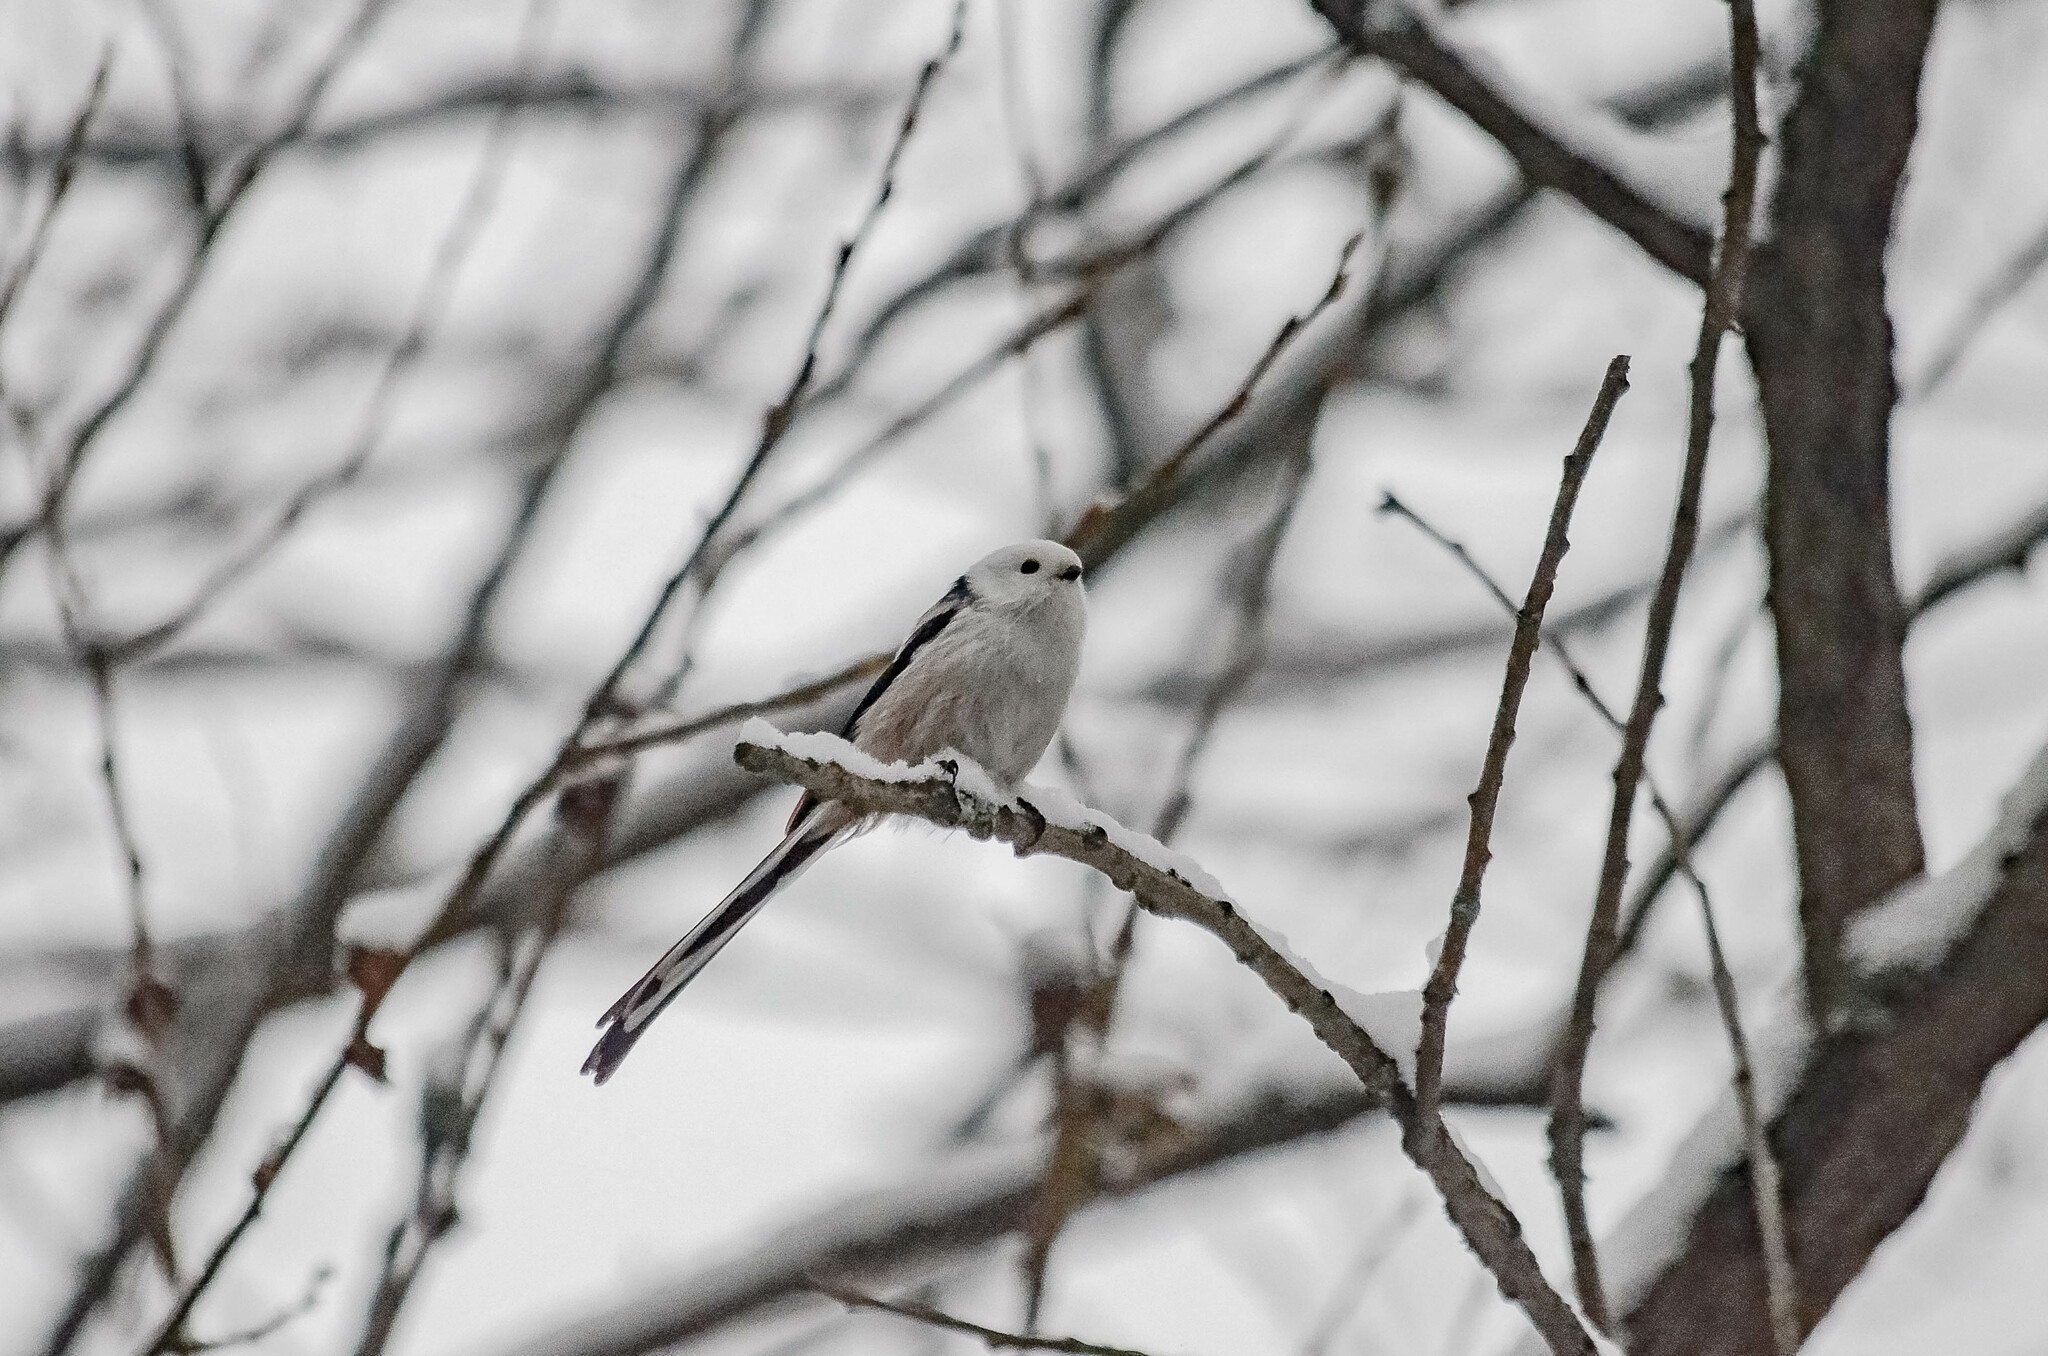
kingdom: Animalia
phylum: Chordata
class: Aves
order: Passeriformes
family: Aegithalidae
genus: Aegithalos
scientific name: Aegithalos caudatus
